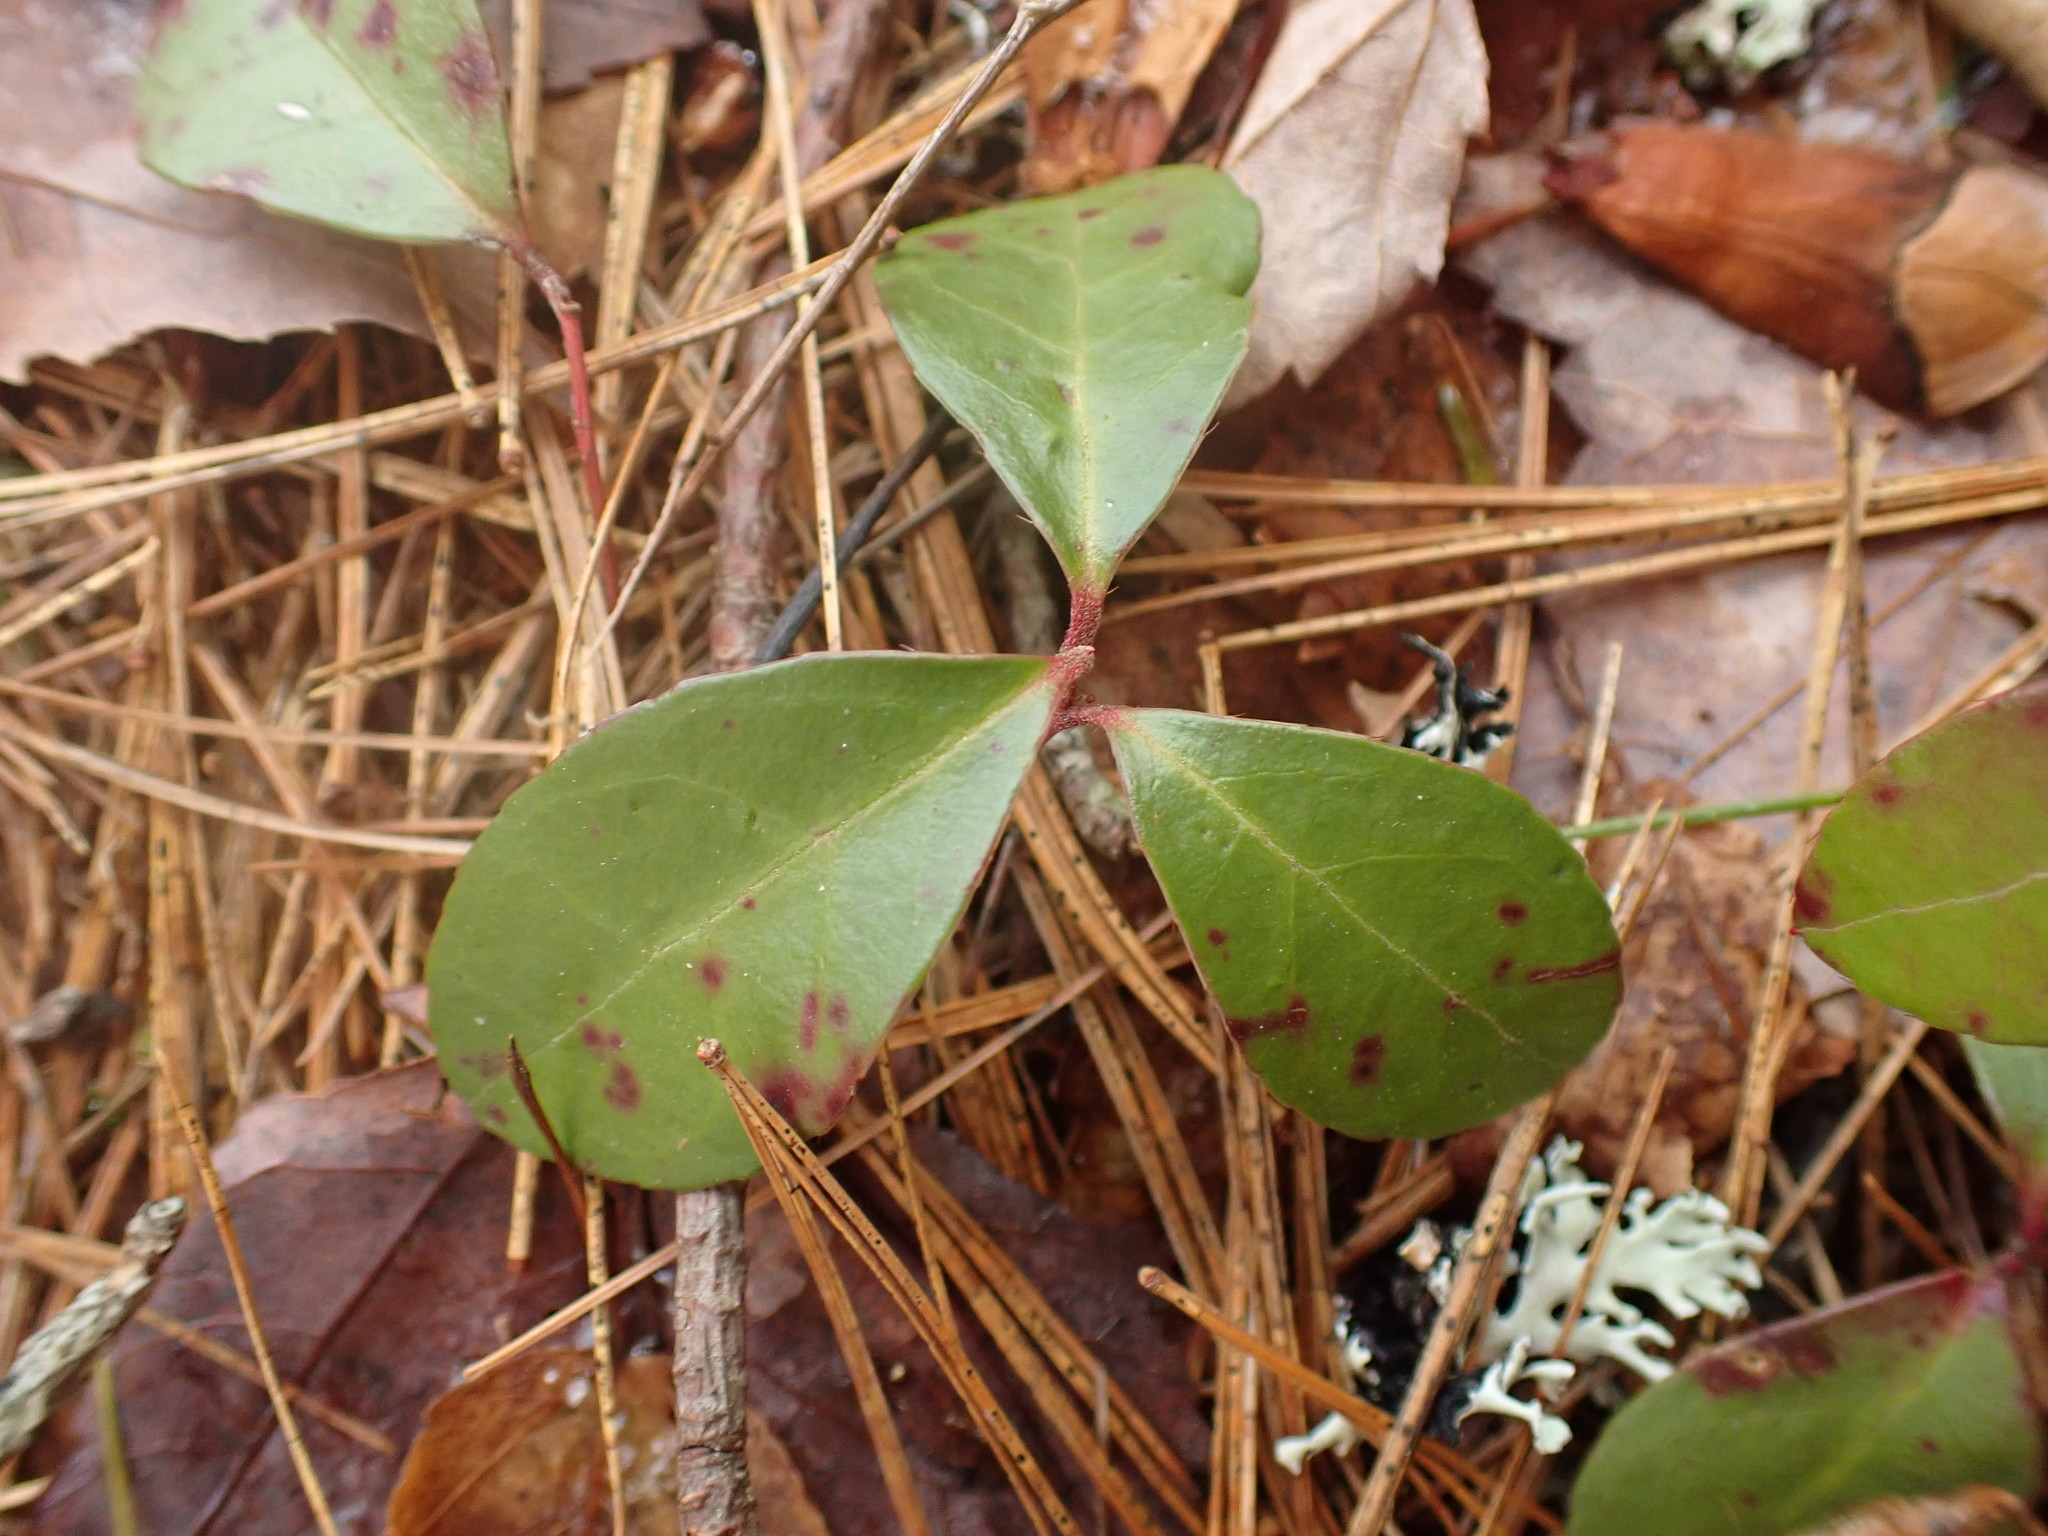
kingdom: Plantae
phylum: Tracheophyta
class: Magnoliopsida
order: Ericales
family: Ericaceae
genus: Gaultheria
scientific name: Gaultheria procumbens
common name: Checkerberry
